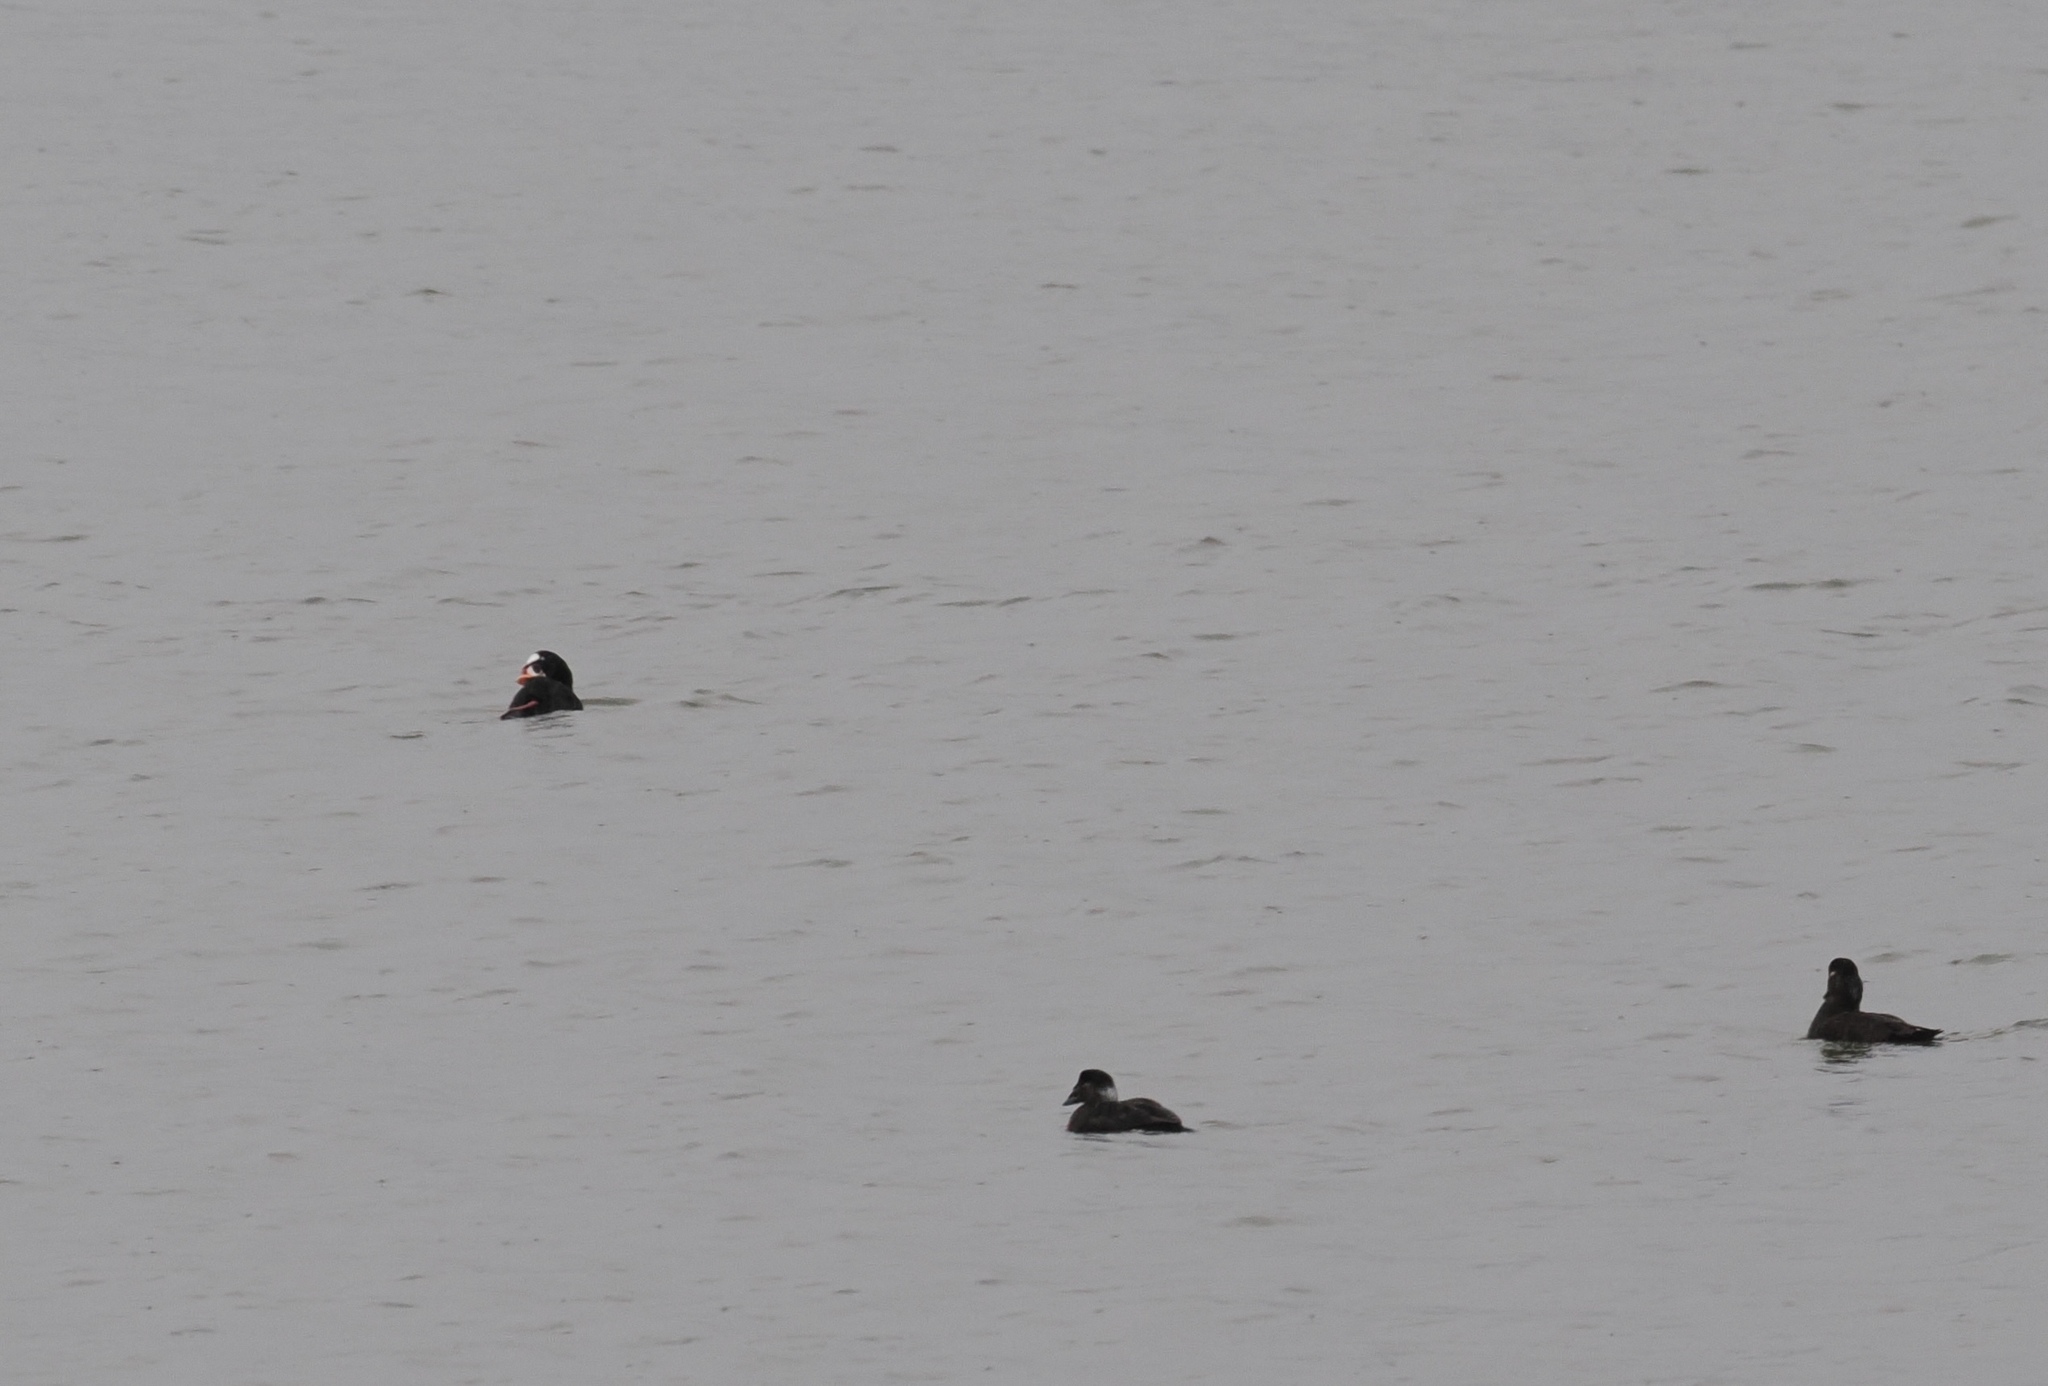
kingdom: Animalia
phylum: Chordata
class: Aves
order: Anseriformes
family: Anatidae
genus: Melanitta
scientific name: Melanitta perspicillata
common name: Surf scoter
